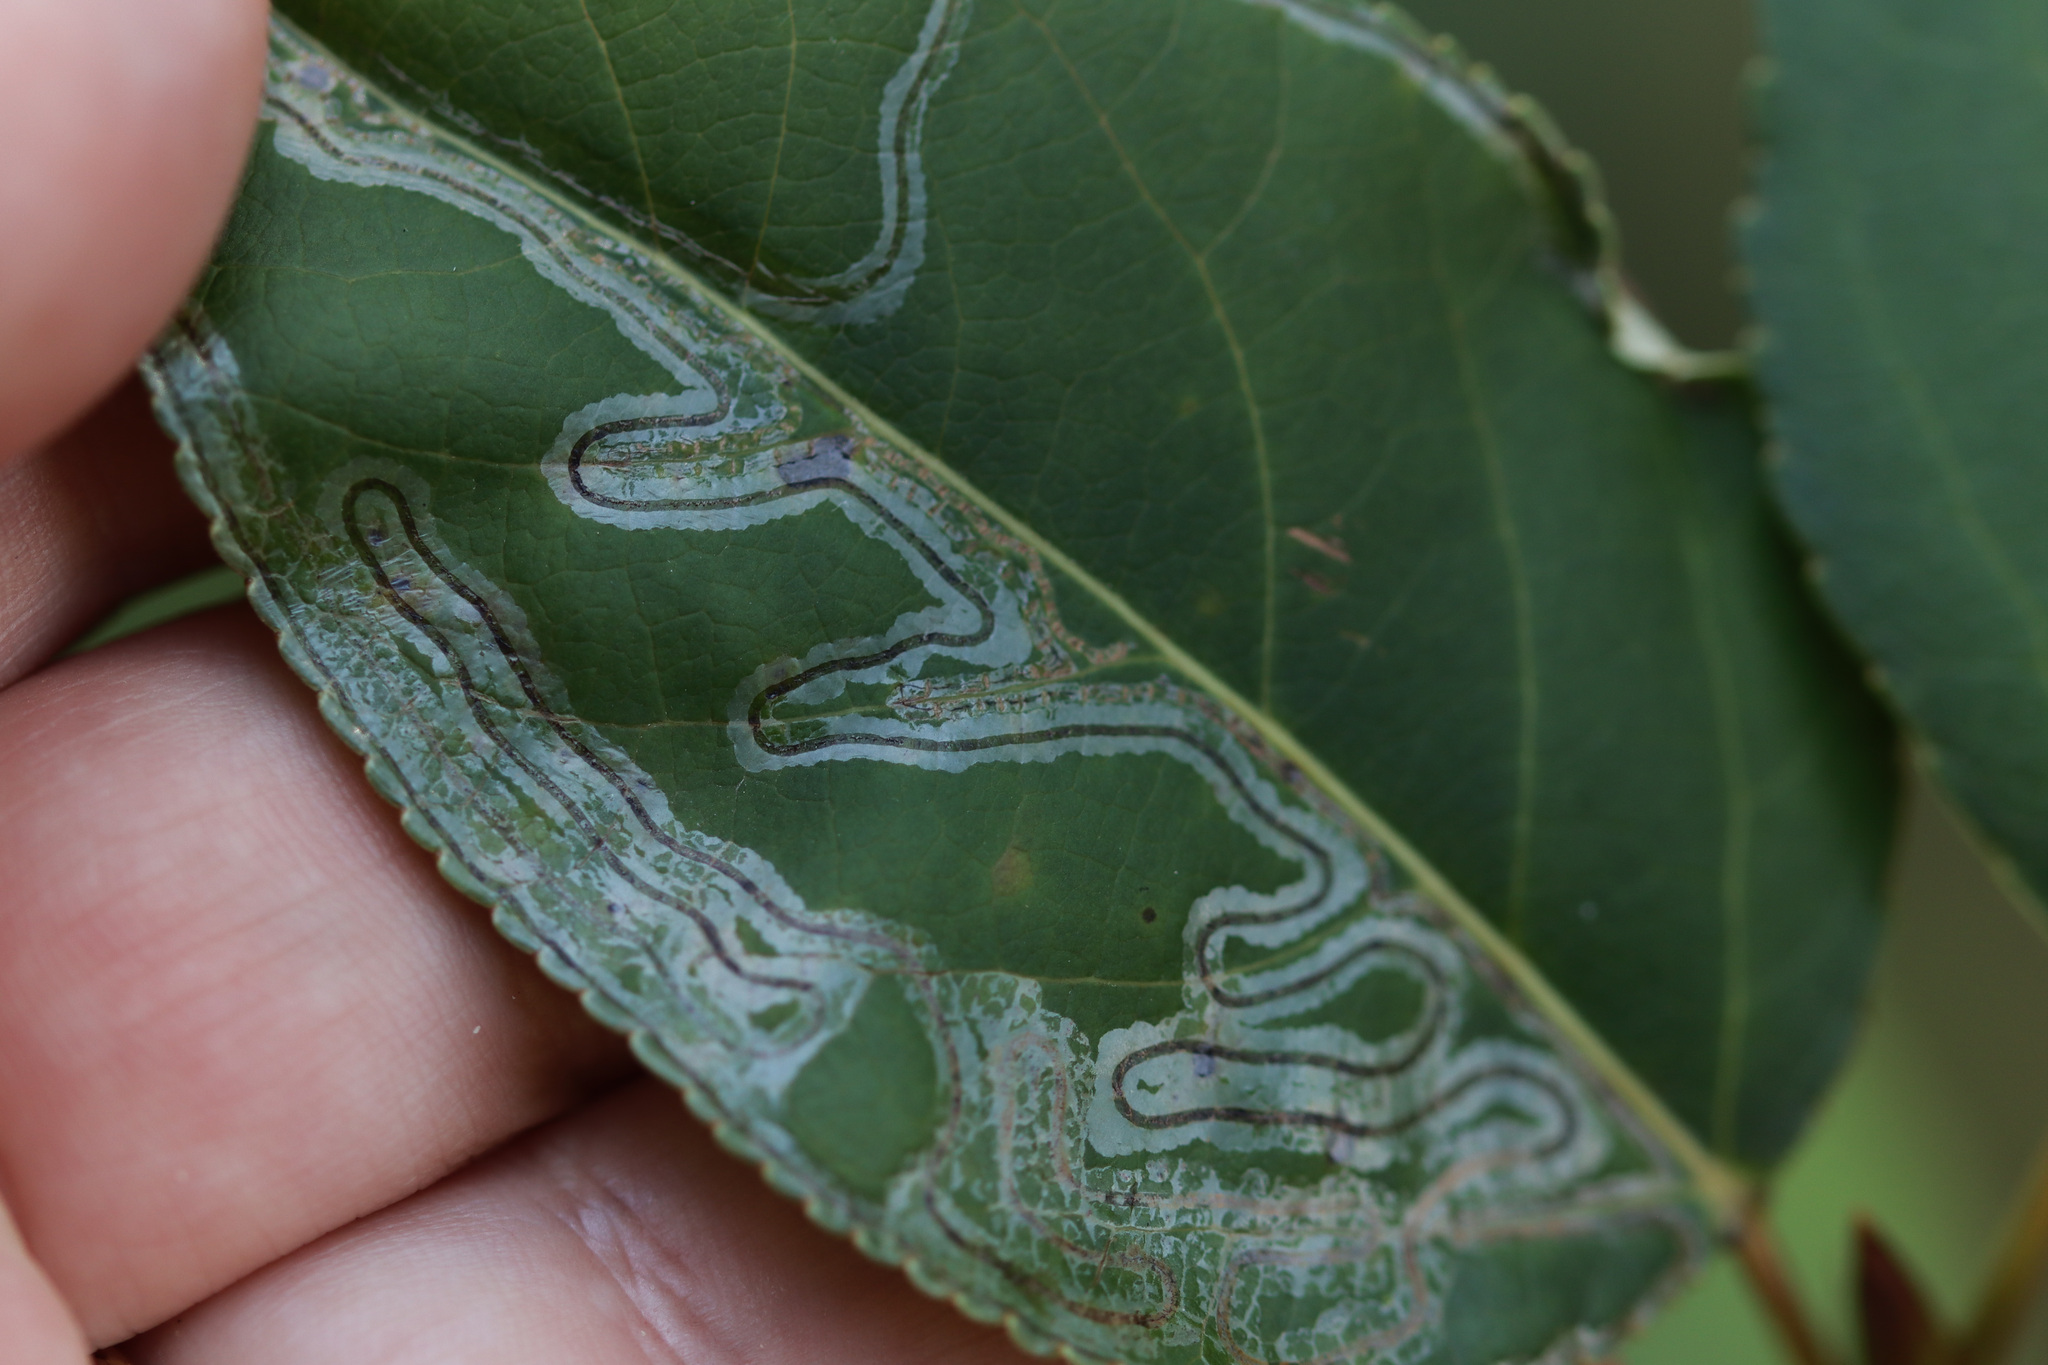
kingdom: Animalia
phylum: Arthropoda
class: Insecta
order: Lepidoptera
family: Gracillariidae
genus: Phyllocnistis
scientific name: Phyllocnistis populiella
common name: Aspen serpentine leafminer moth
